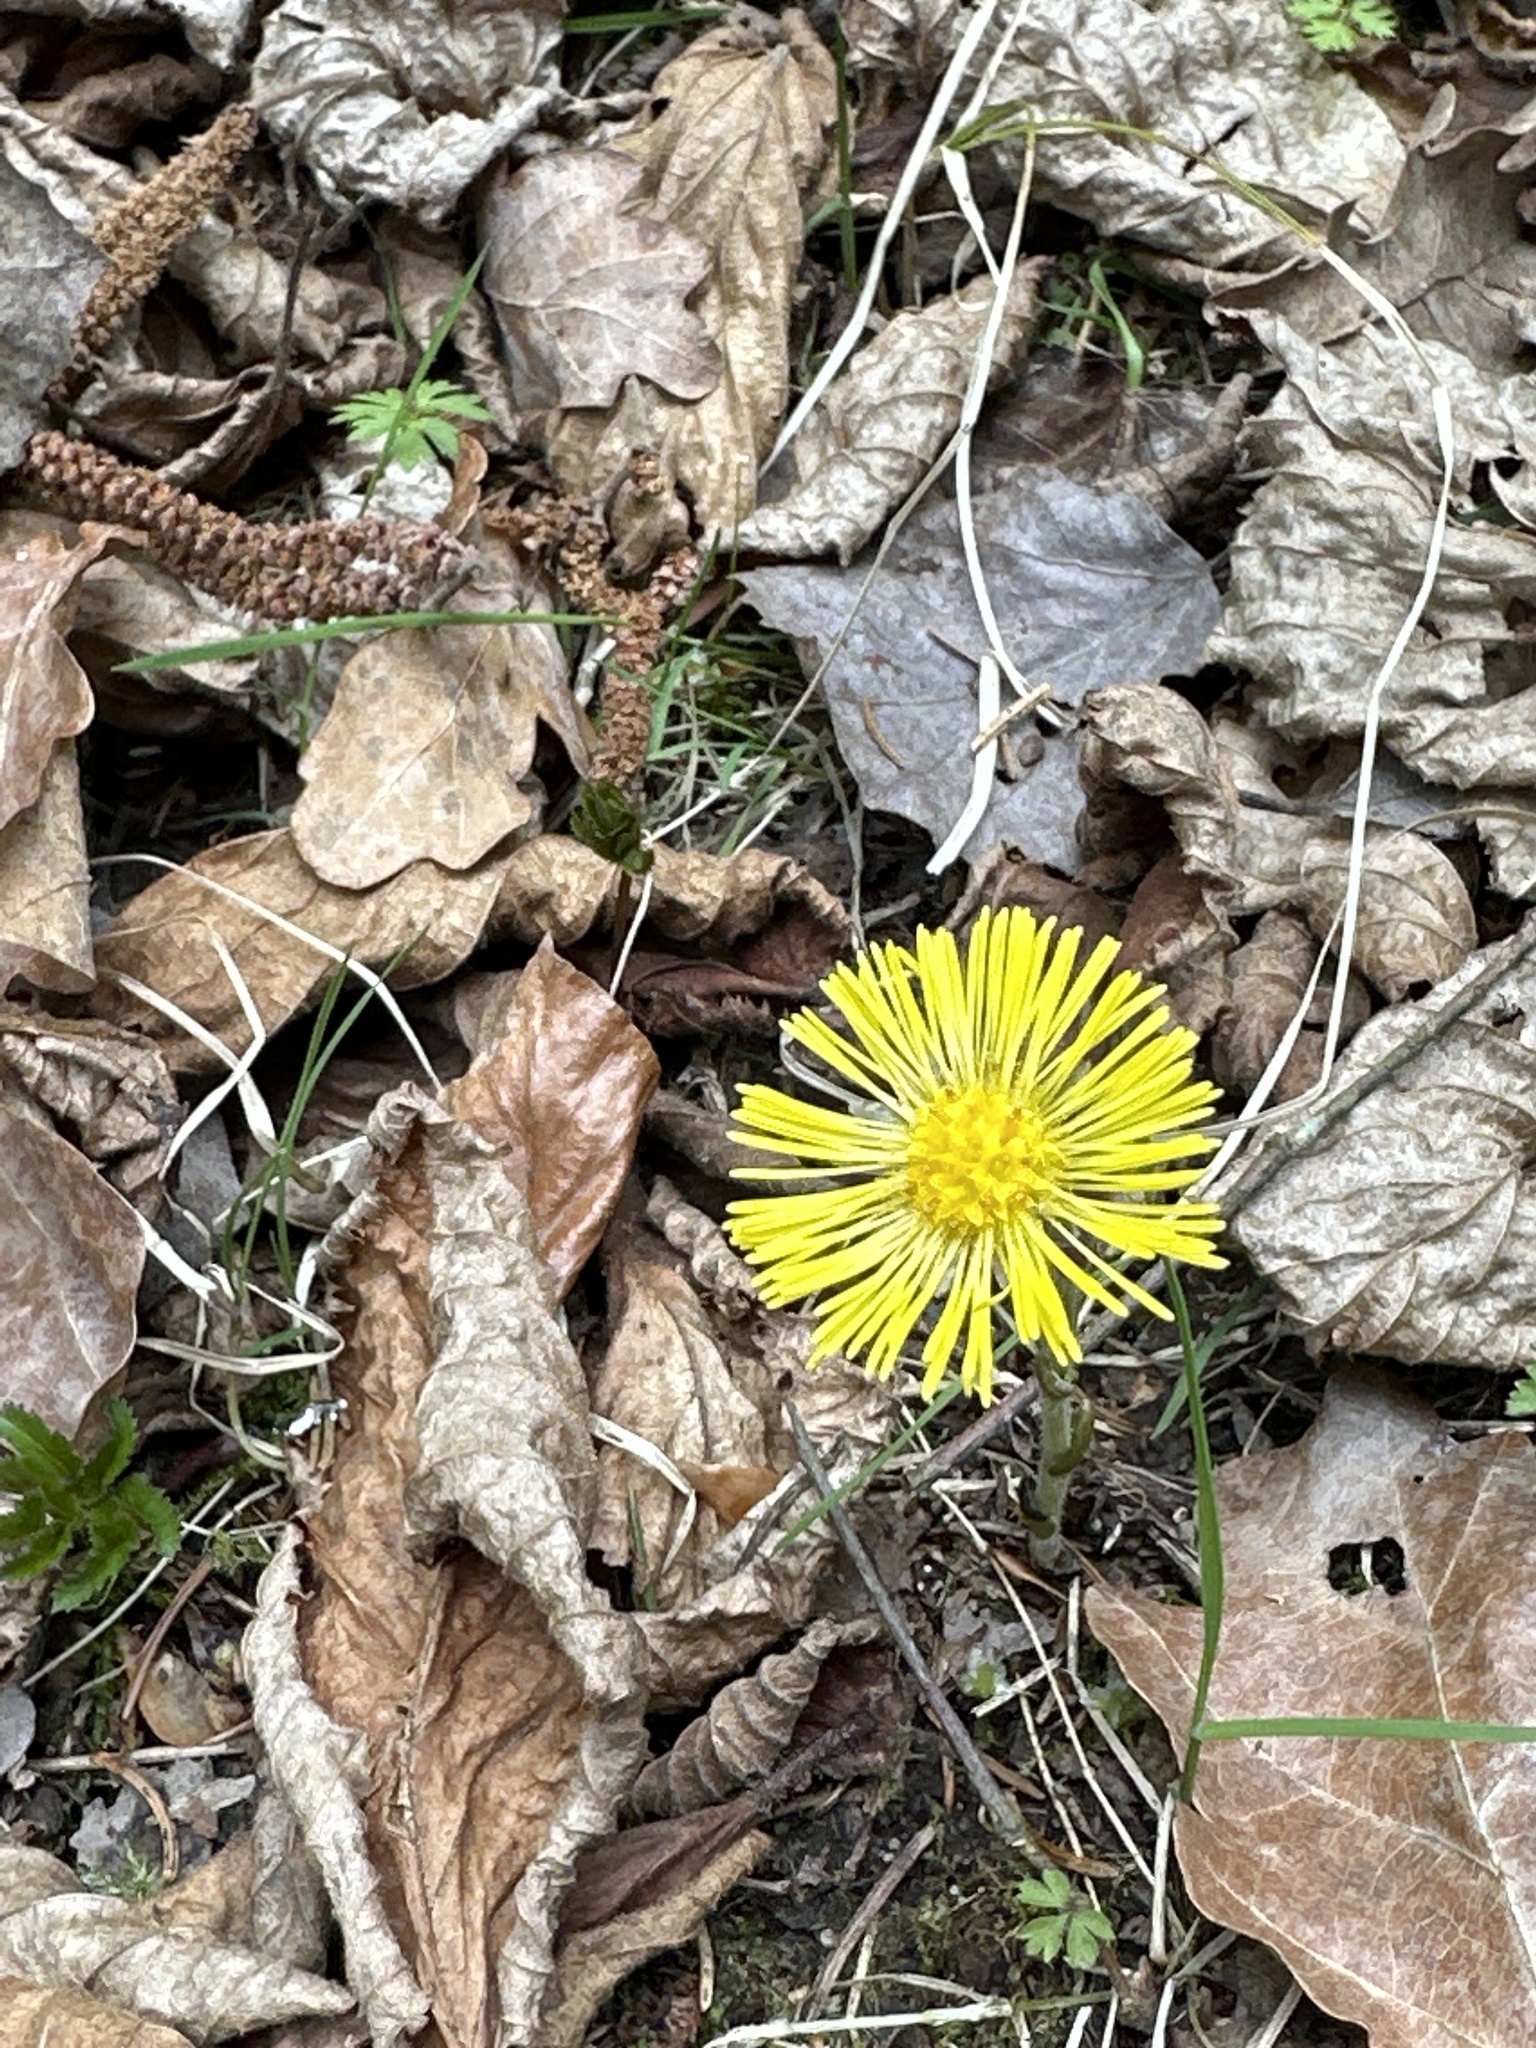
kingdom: Plantae
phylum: Tracheophyta
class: Magnoliopsida
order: Asterales
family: Asteraceae
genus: Tussilago
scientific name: Tussilago farfara
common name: Coltsfoot
